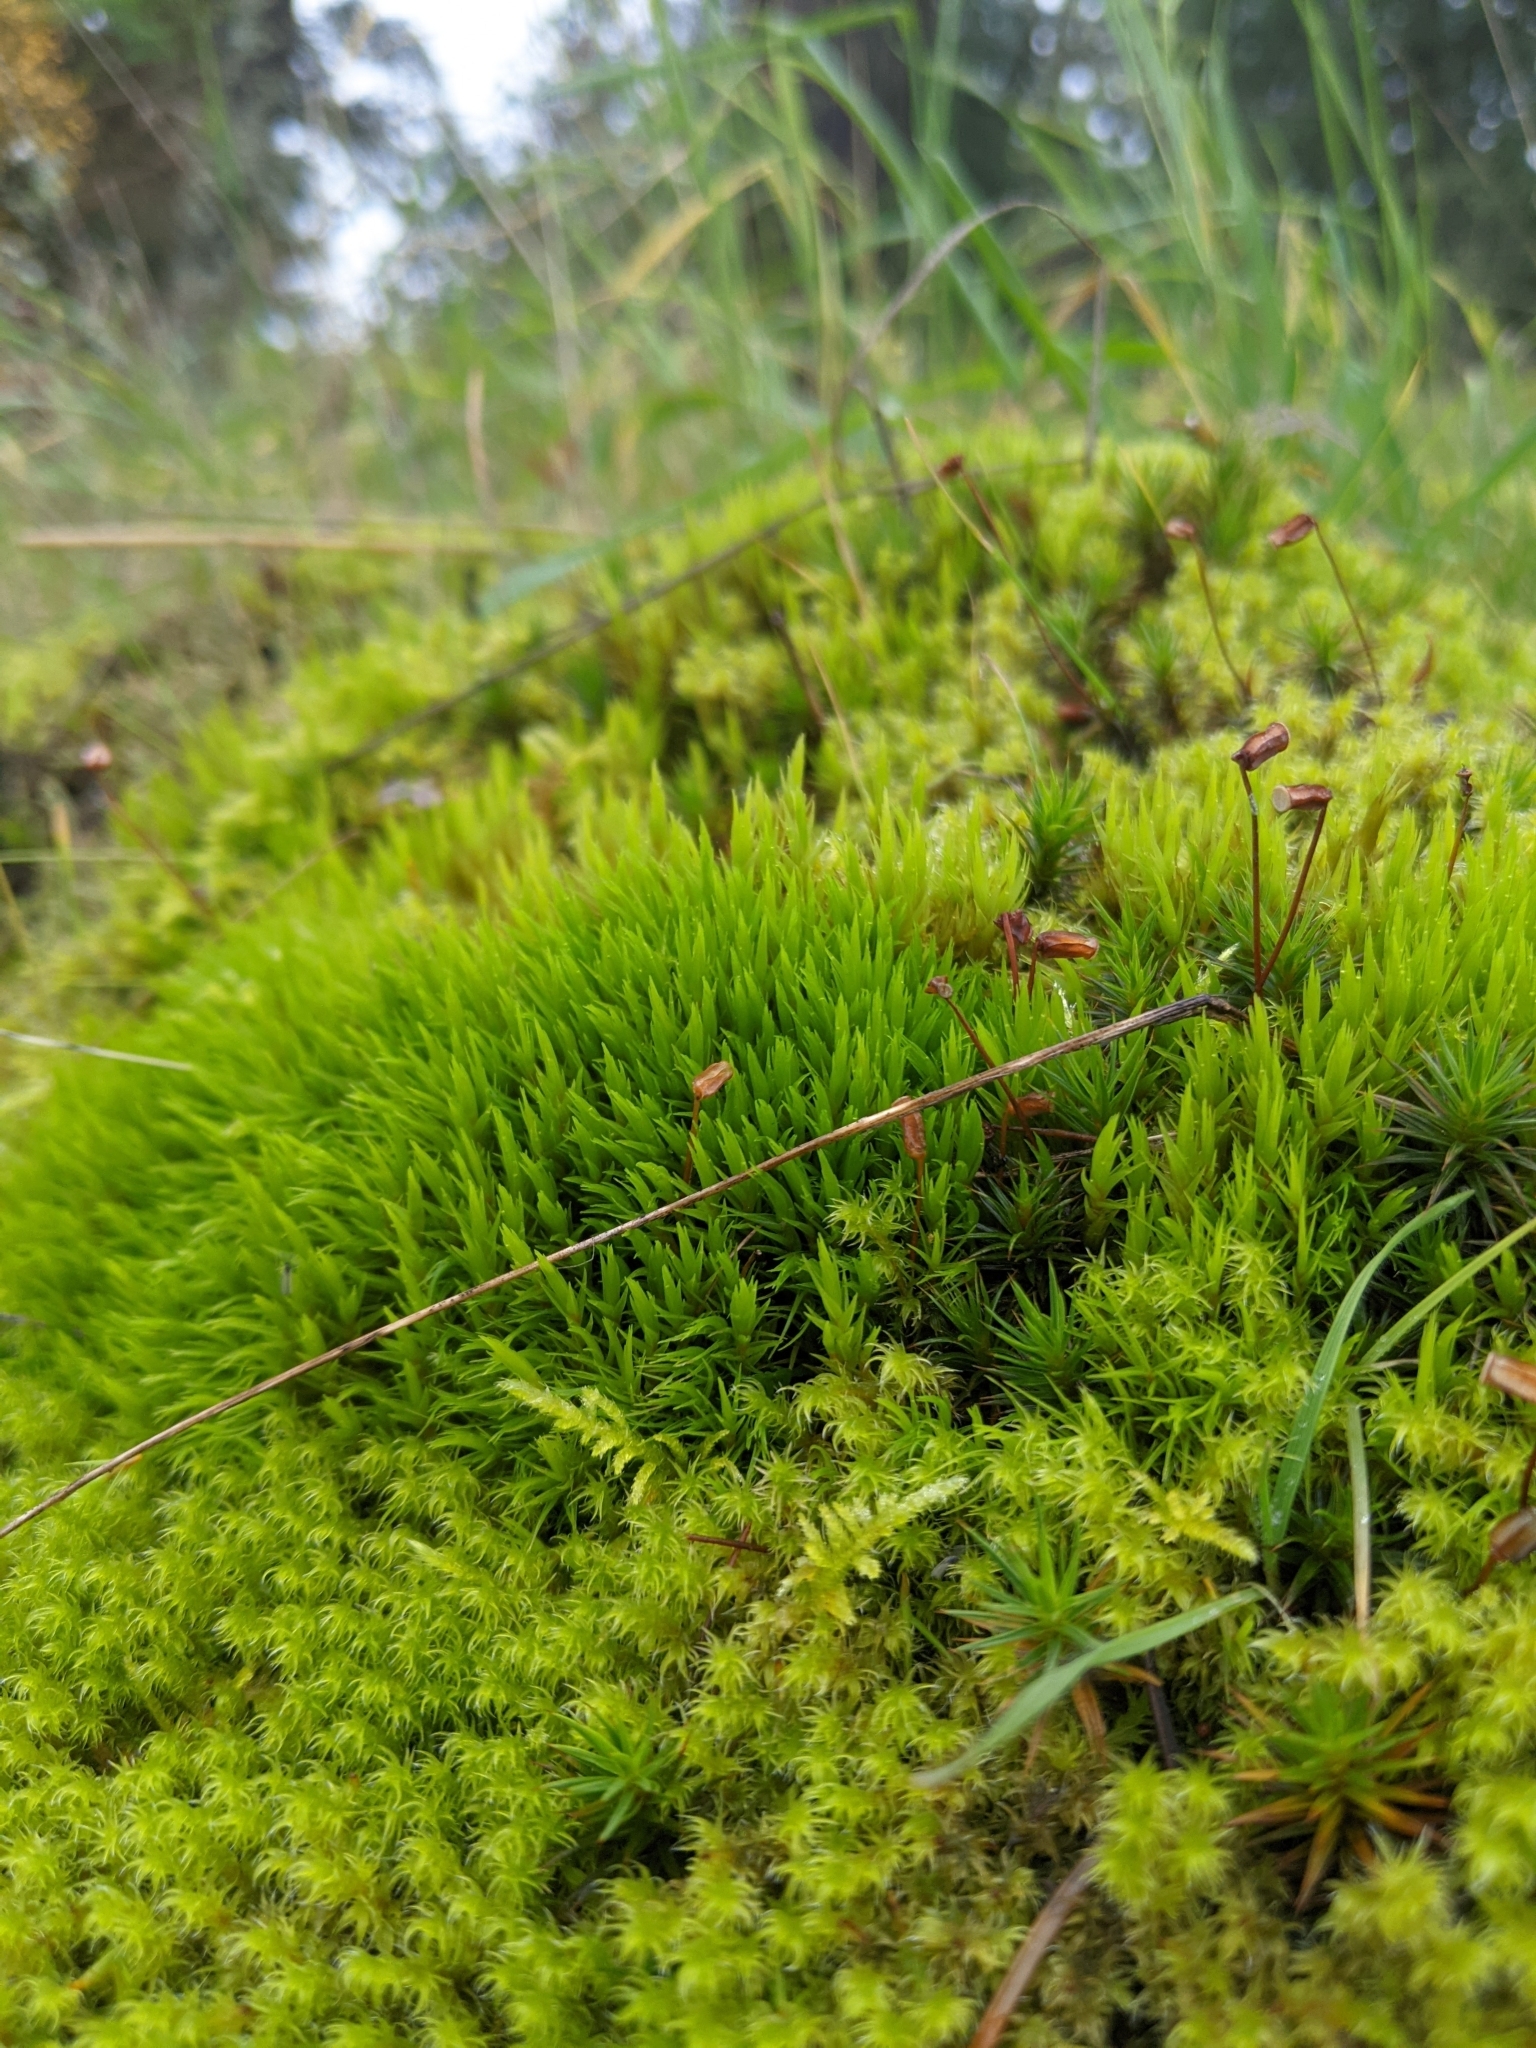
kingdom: Plantae
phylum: Bryophyta
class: Bryopsida
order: Dicranales
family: Dicranaceae
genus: Dicranum
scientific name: Dicranum scoparium
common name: Broom fork-moss
